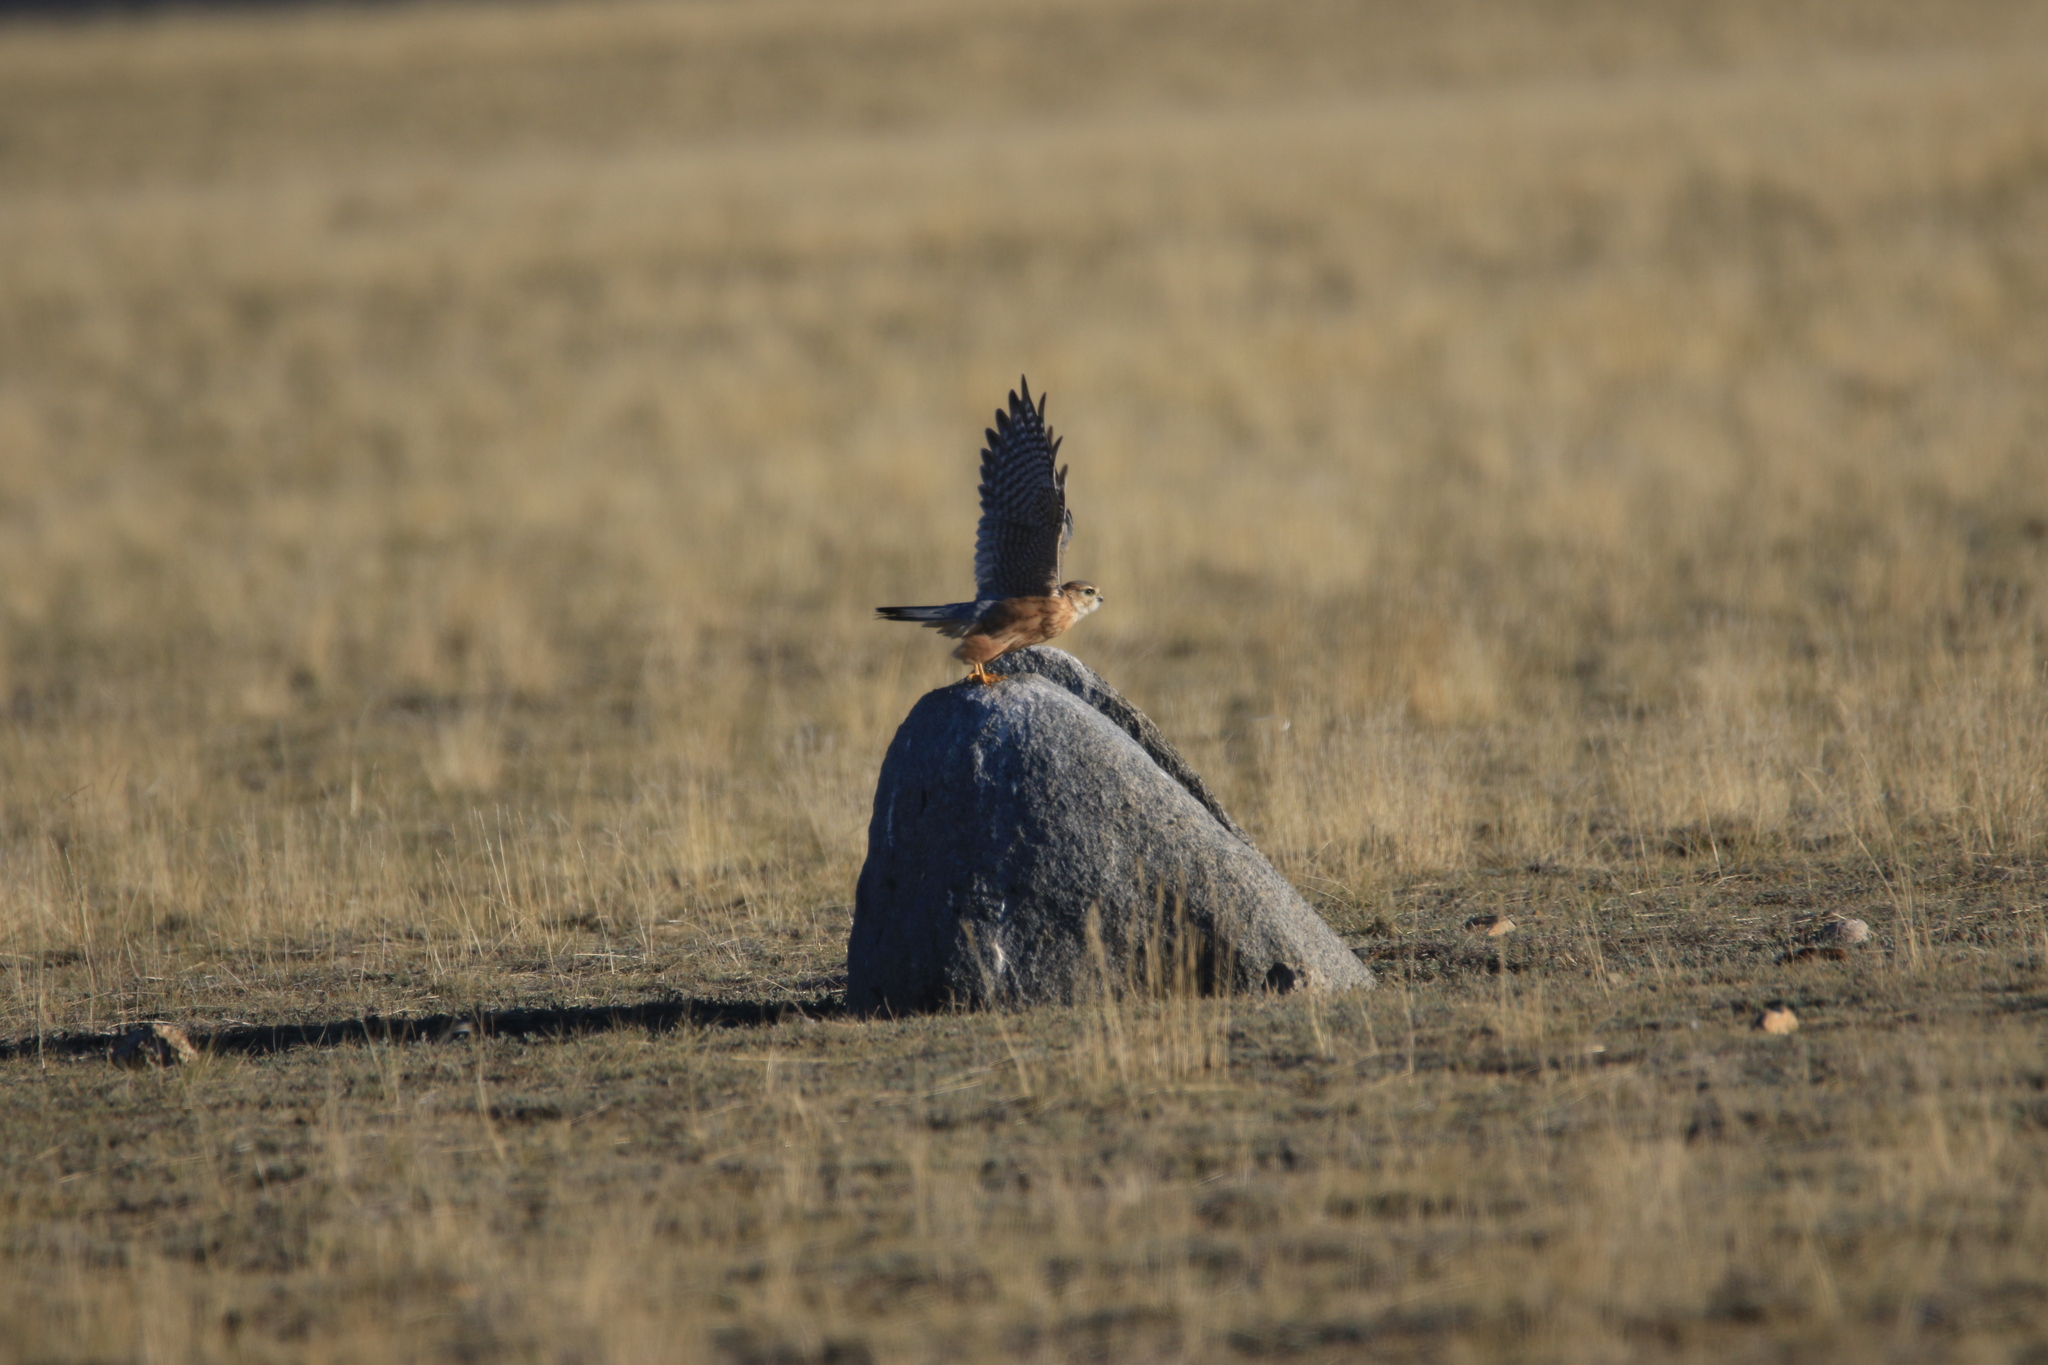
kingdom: Animalia
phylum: Chordata
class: Aves
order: Falconiformes
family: Falconidae
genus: Falco
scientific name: Falco columbarius
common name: Merlin
